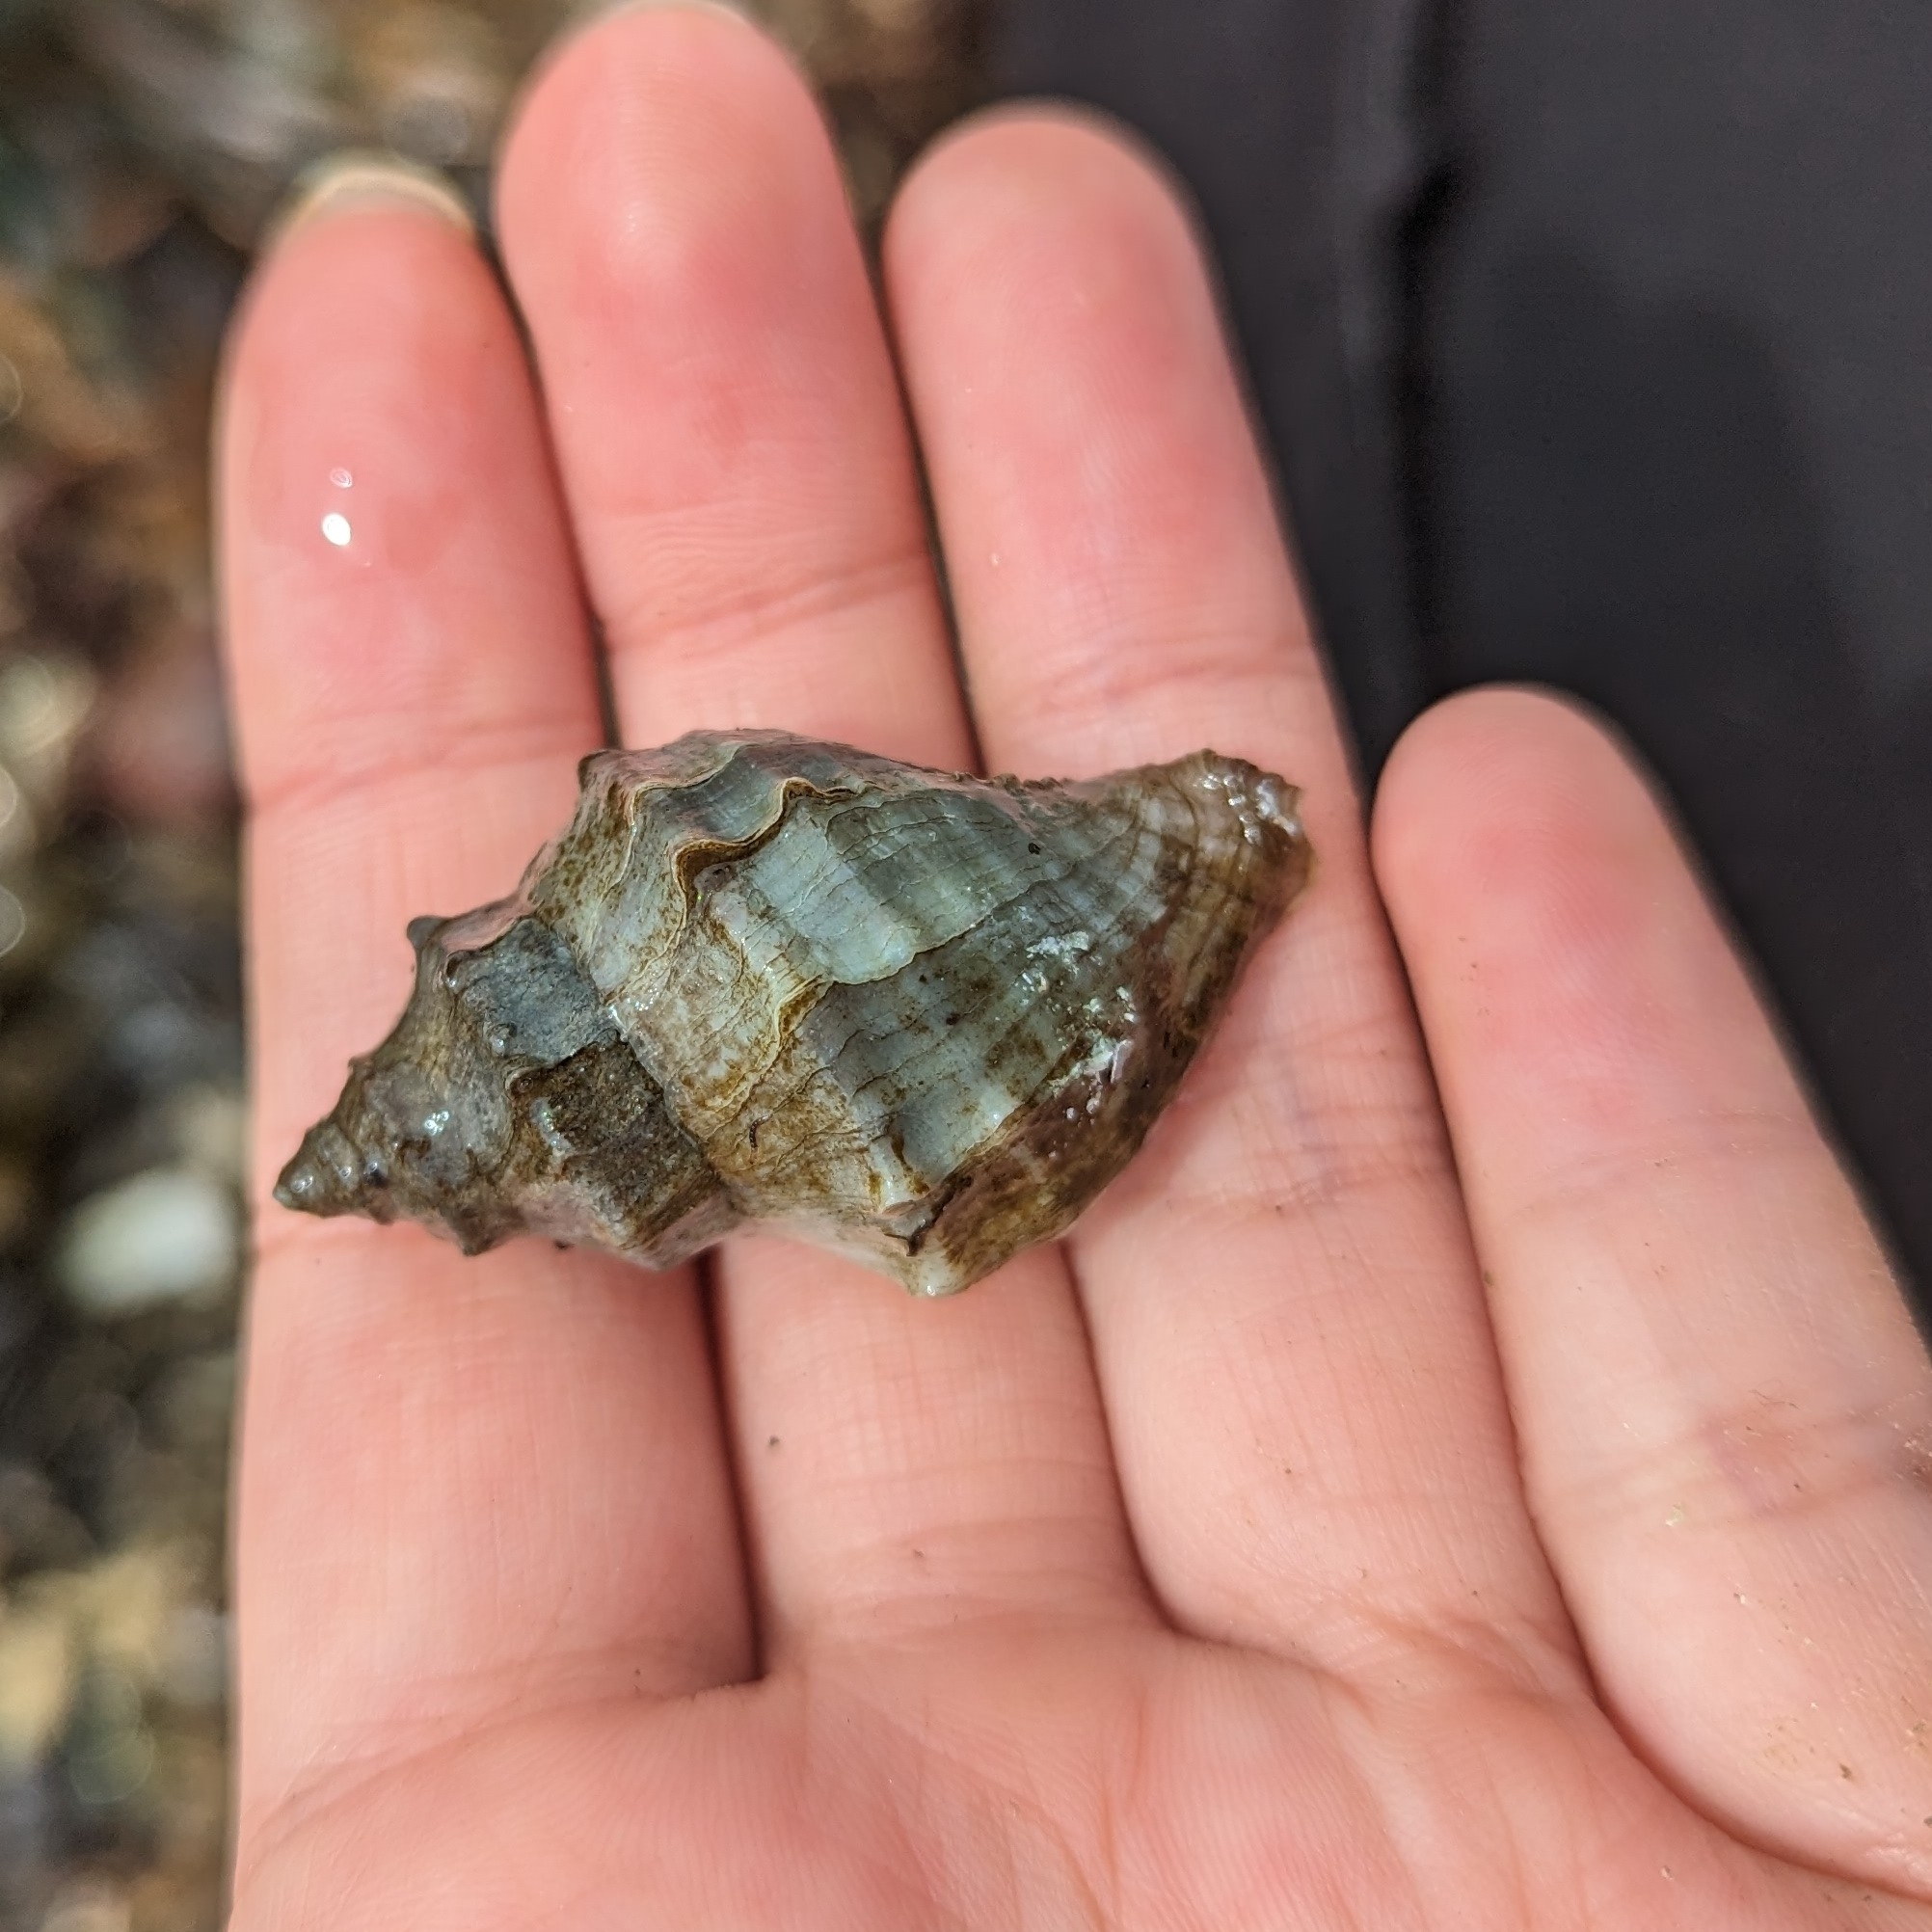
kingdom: Animalia
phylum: Mollusca
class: Gastropoda
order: Neogastropoda
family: Muricidae
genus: Nucella
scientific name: Nucella lamellosa
